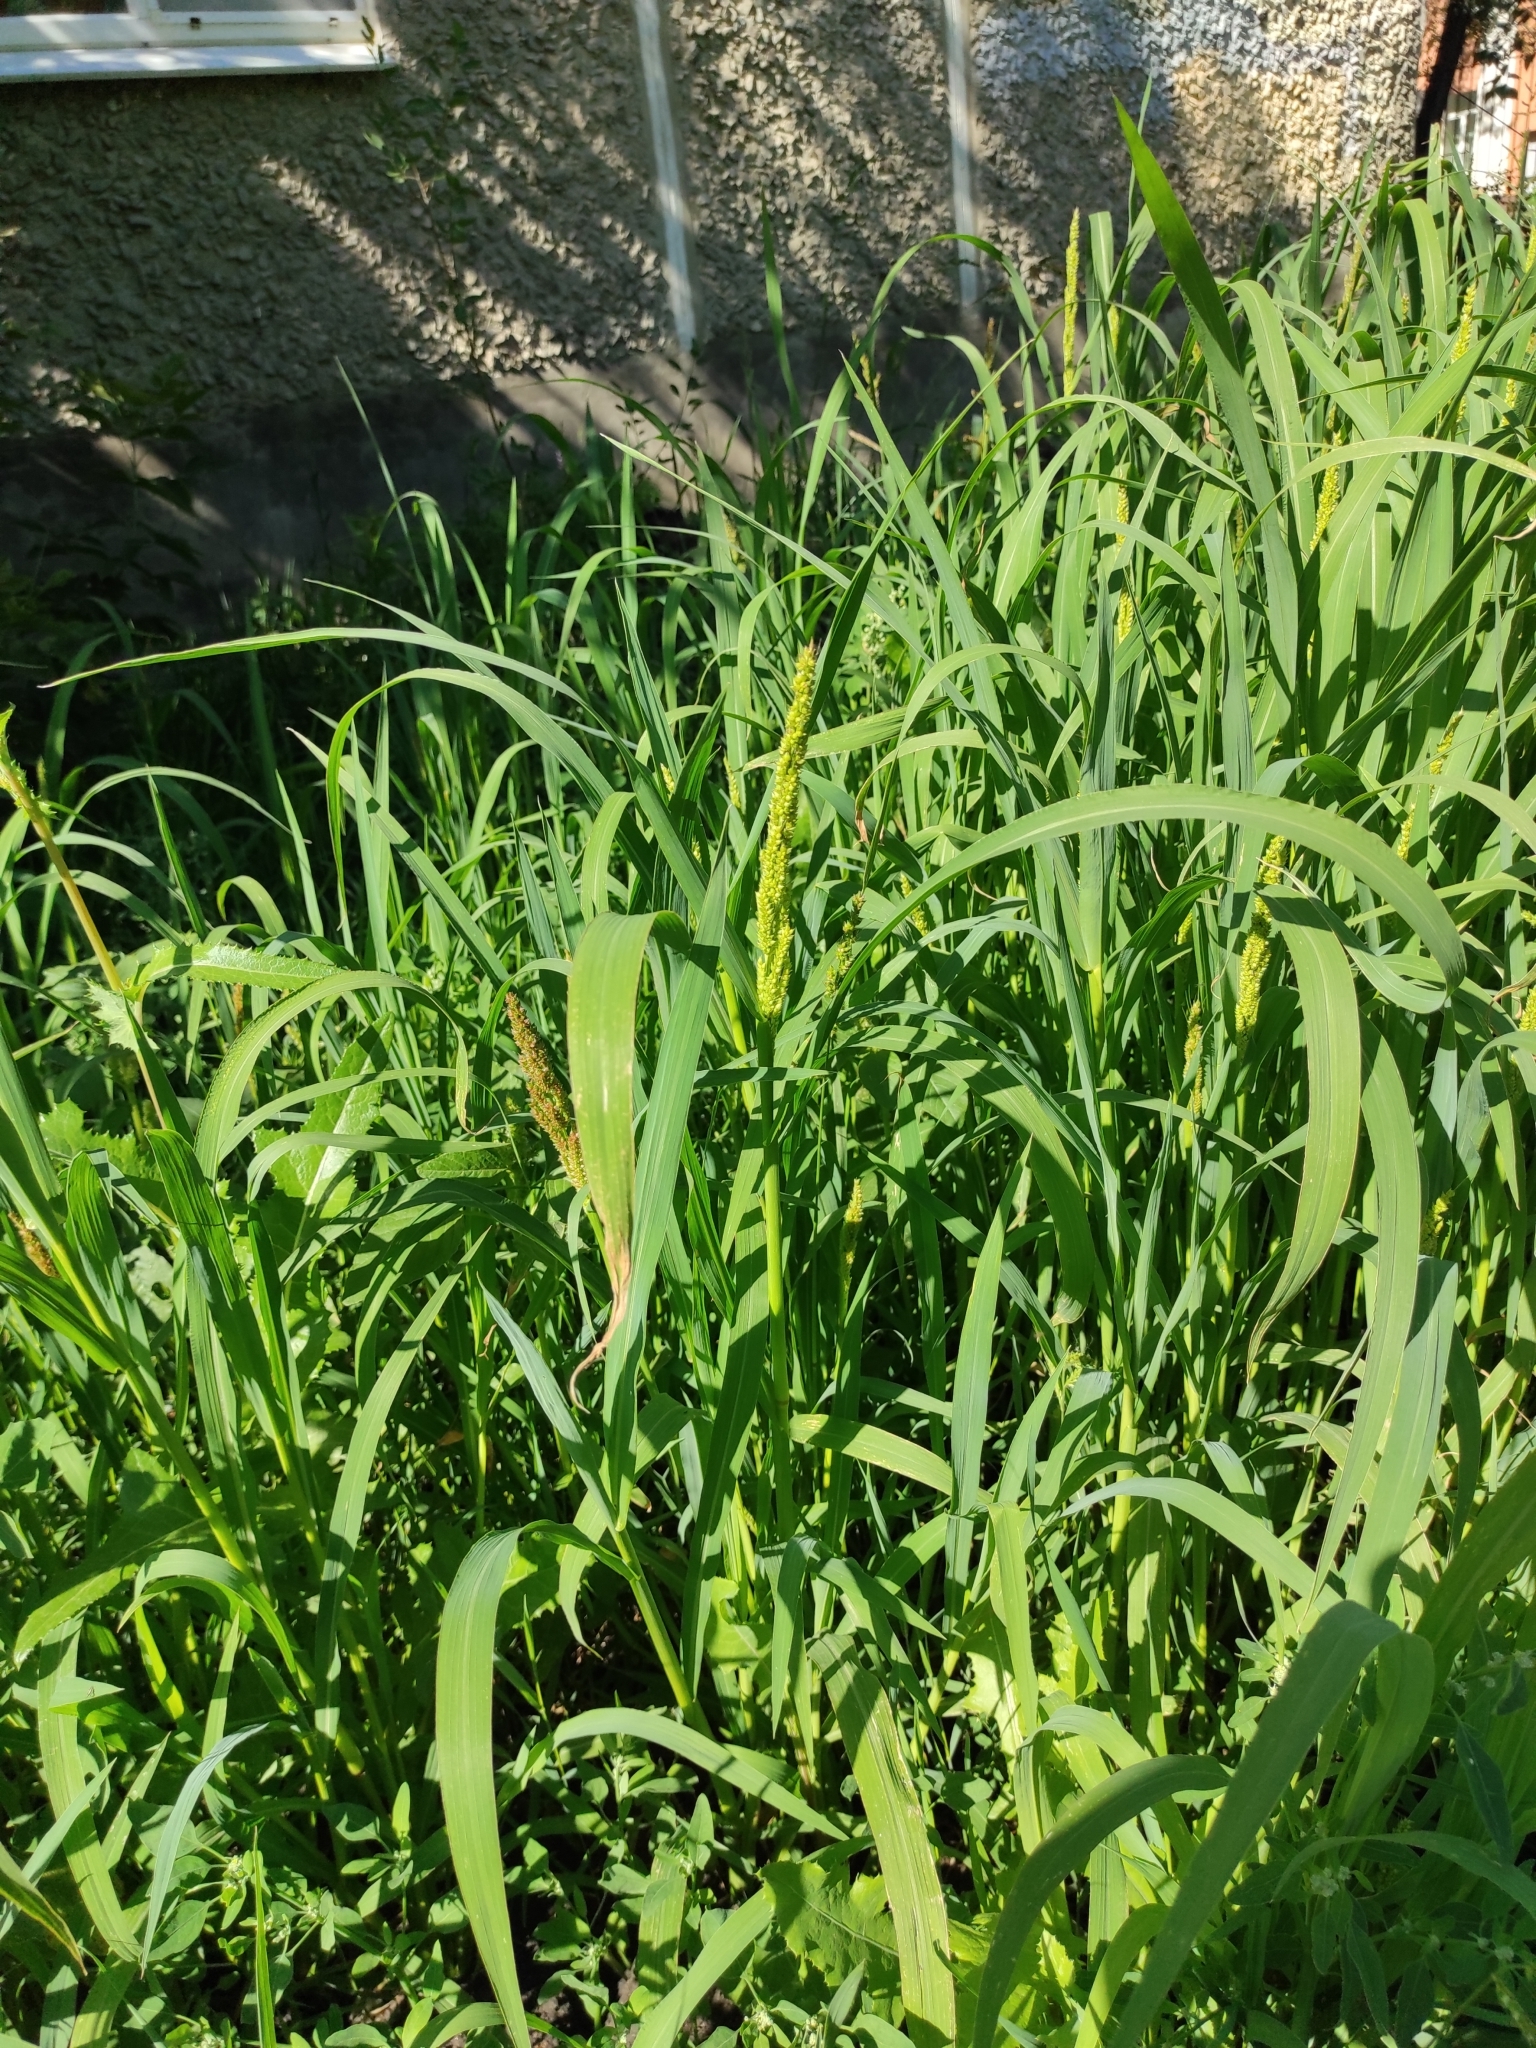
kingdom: Plantae
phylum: Tracheophyta
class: Liliopsida
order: Poales
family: Poaceae
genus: Echinochloa
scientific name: Echinochloa crus-galli
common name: Cockspur
